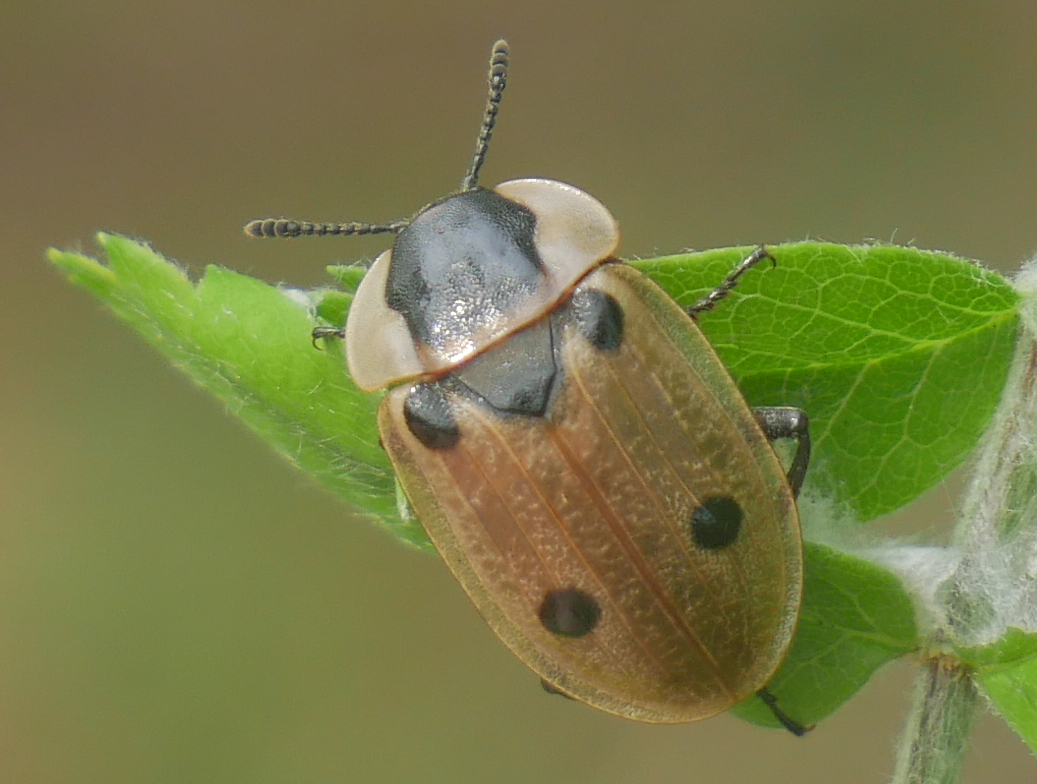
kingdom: Animalia
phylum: Arthropoda
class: Insecta
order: Coleoptera
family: Staphylinidae
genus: Dendroxena
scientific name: Dendroxena quadrimaculata
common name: Carrion beetle
